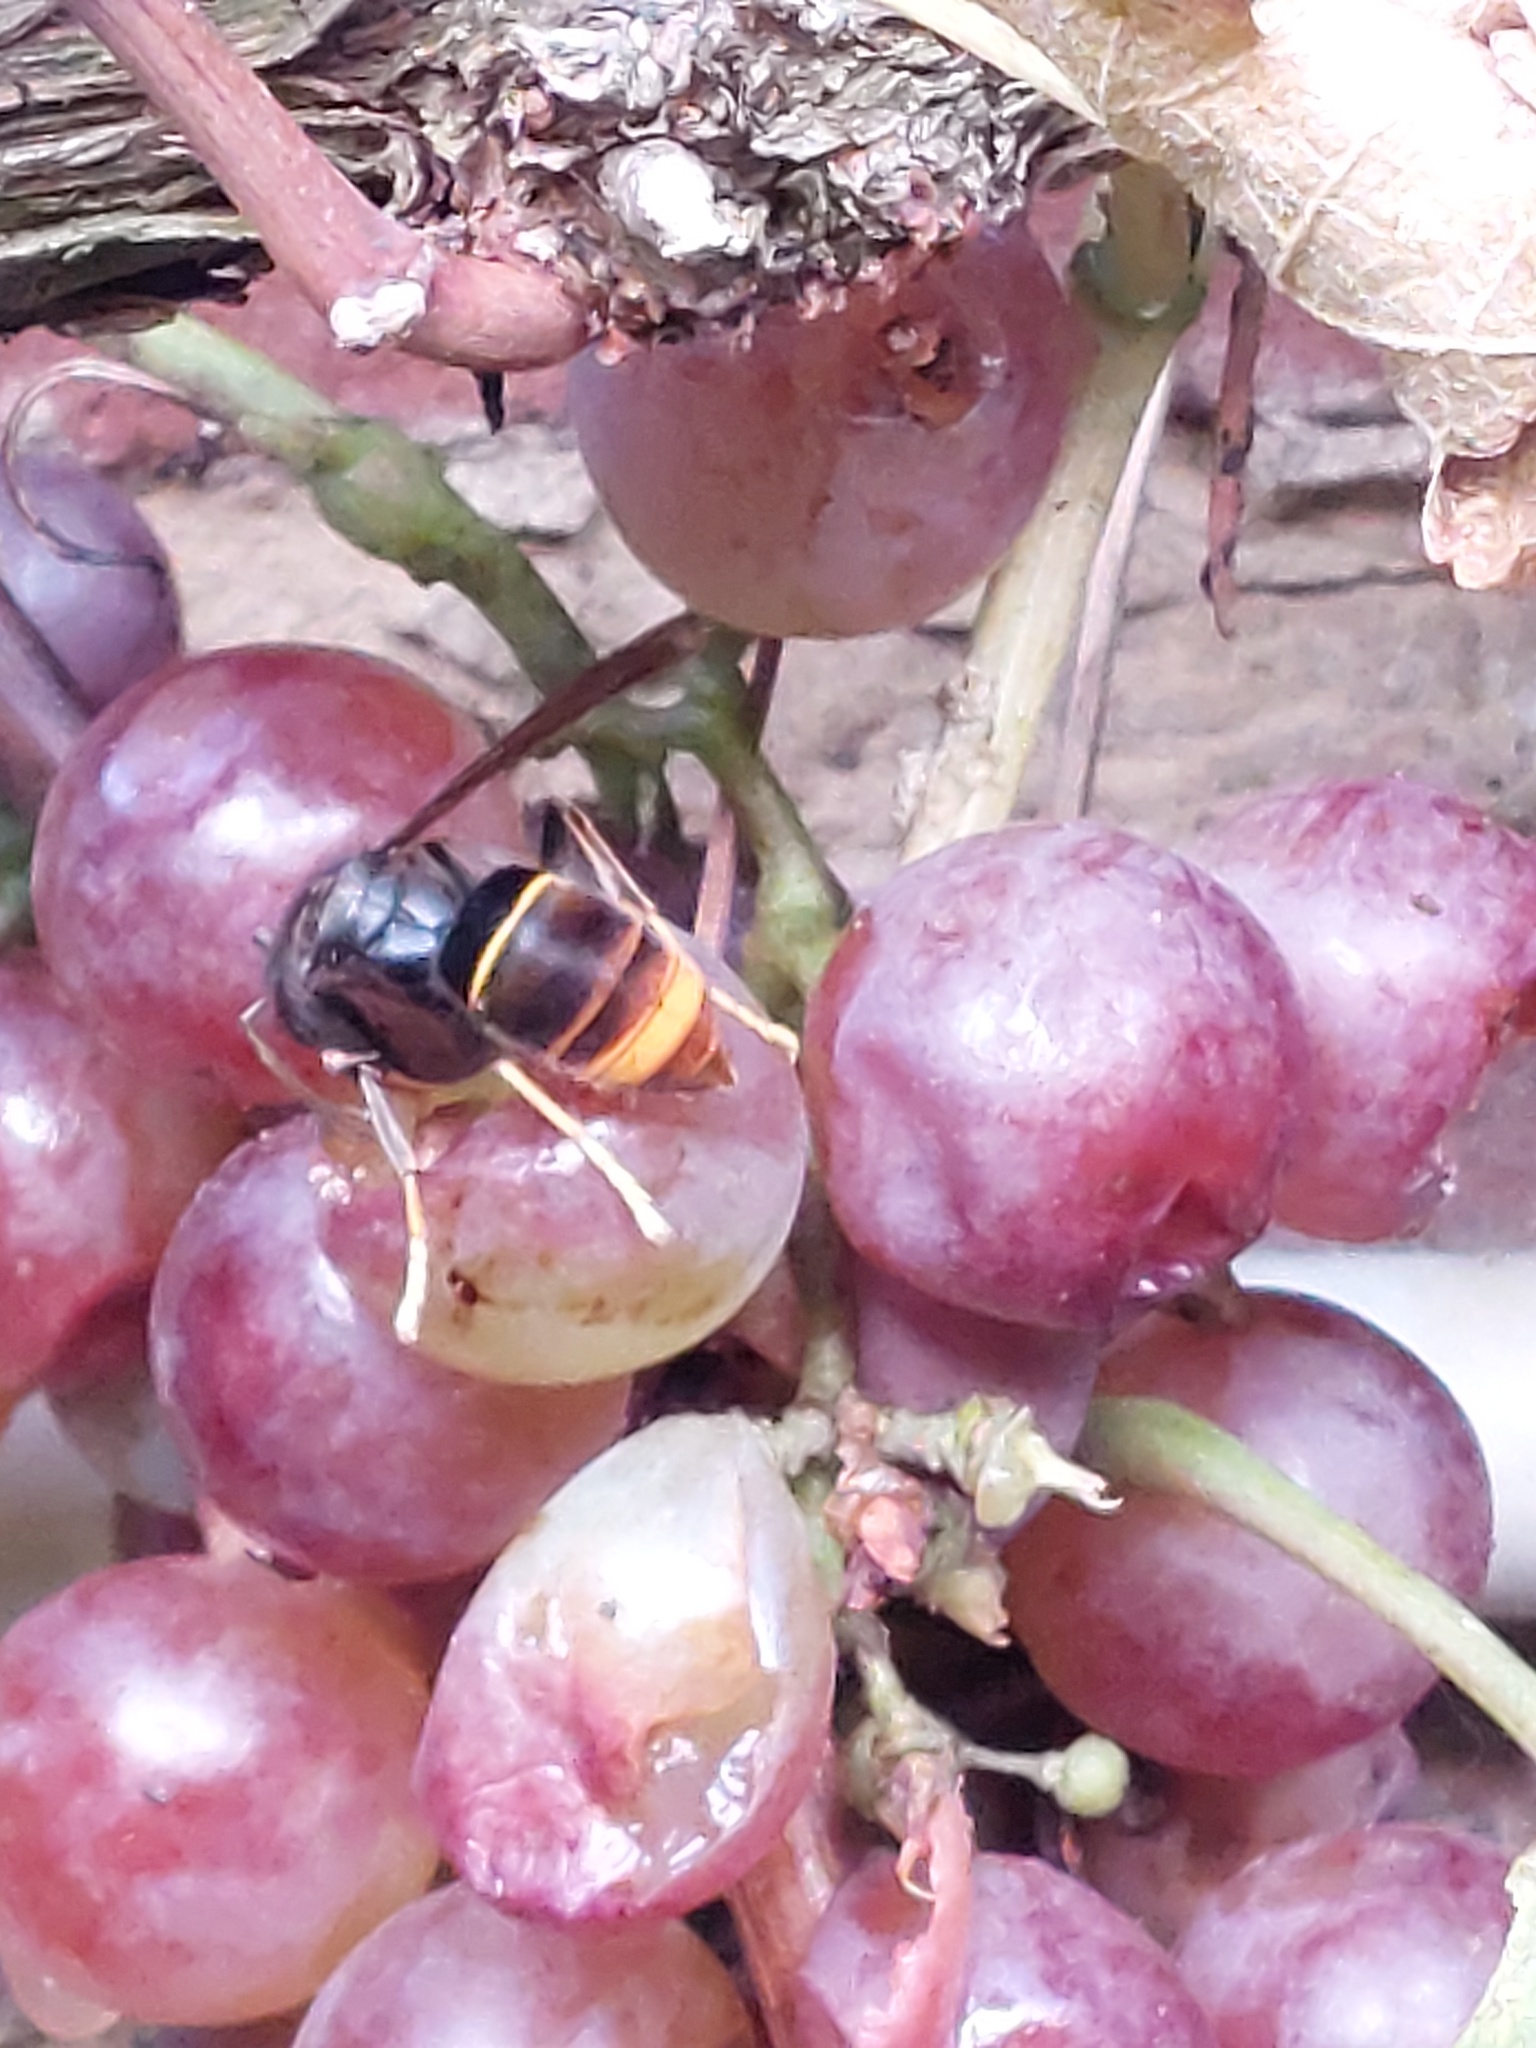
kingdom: Animalia
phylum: Arthropoda
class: Insecta
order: Hymenoptera
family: Vespidae
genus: Vespa
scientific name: Vespa velutina
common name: Asian hornet
